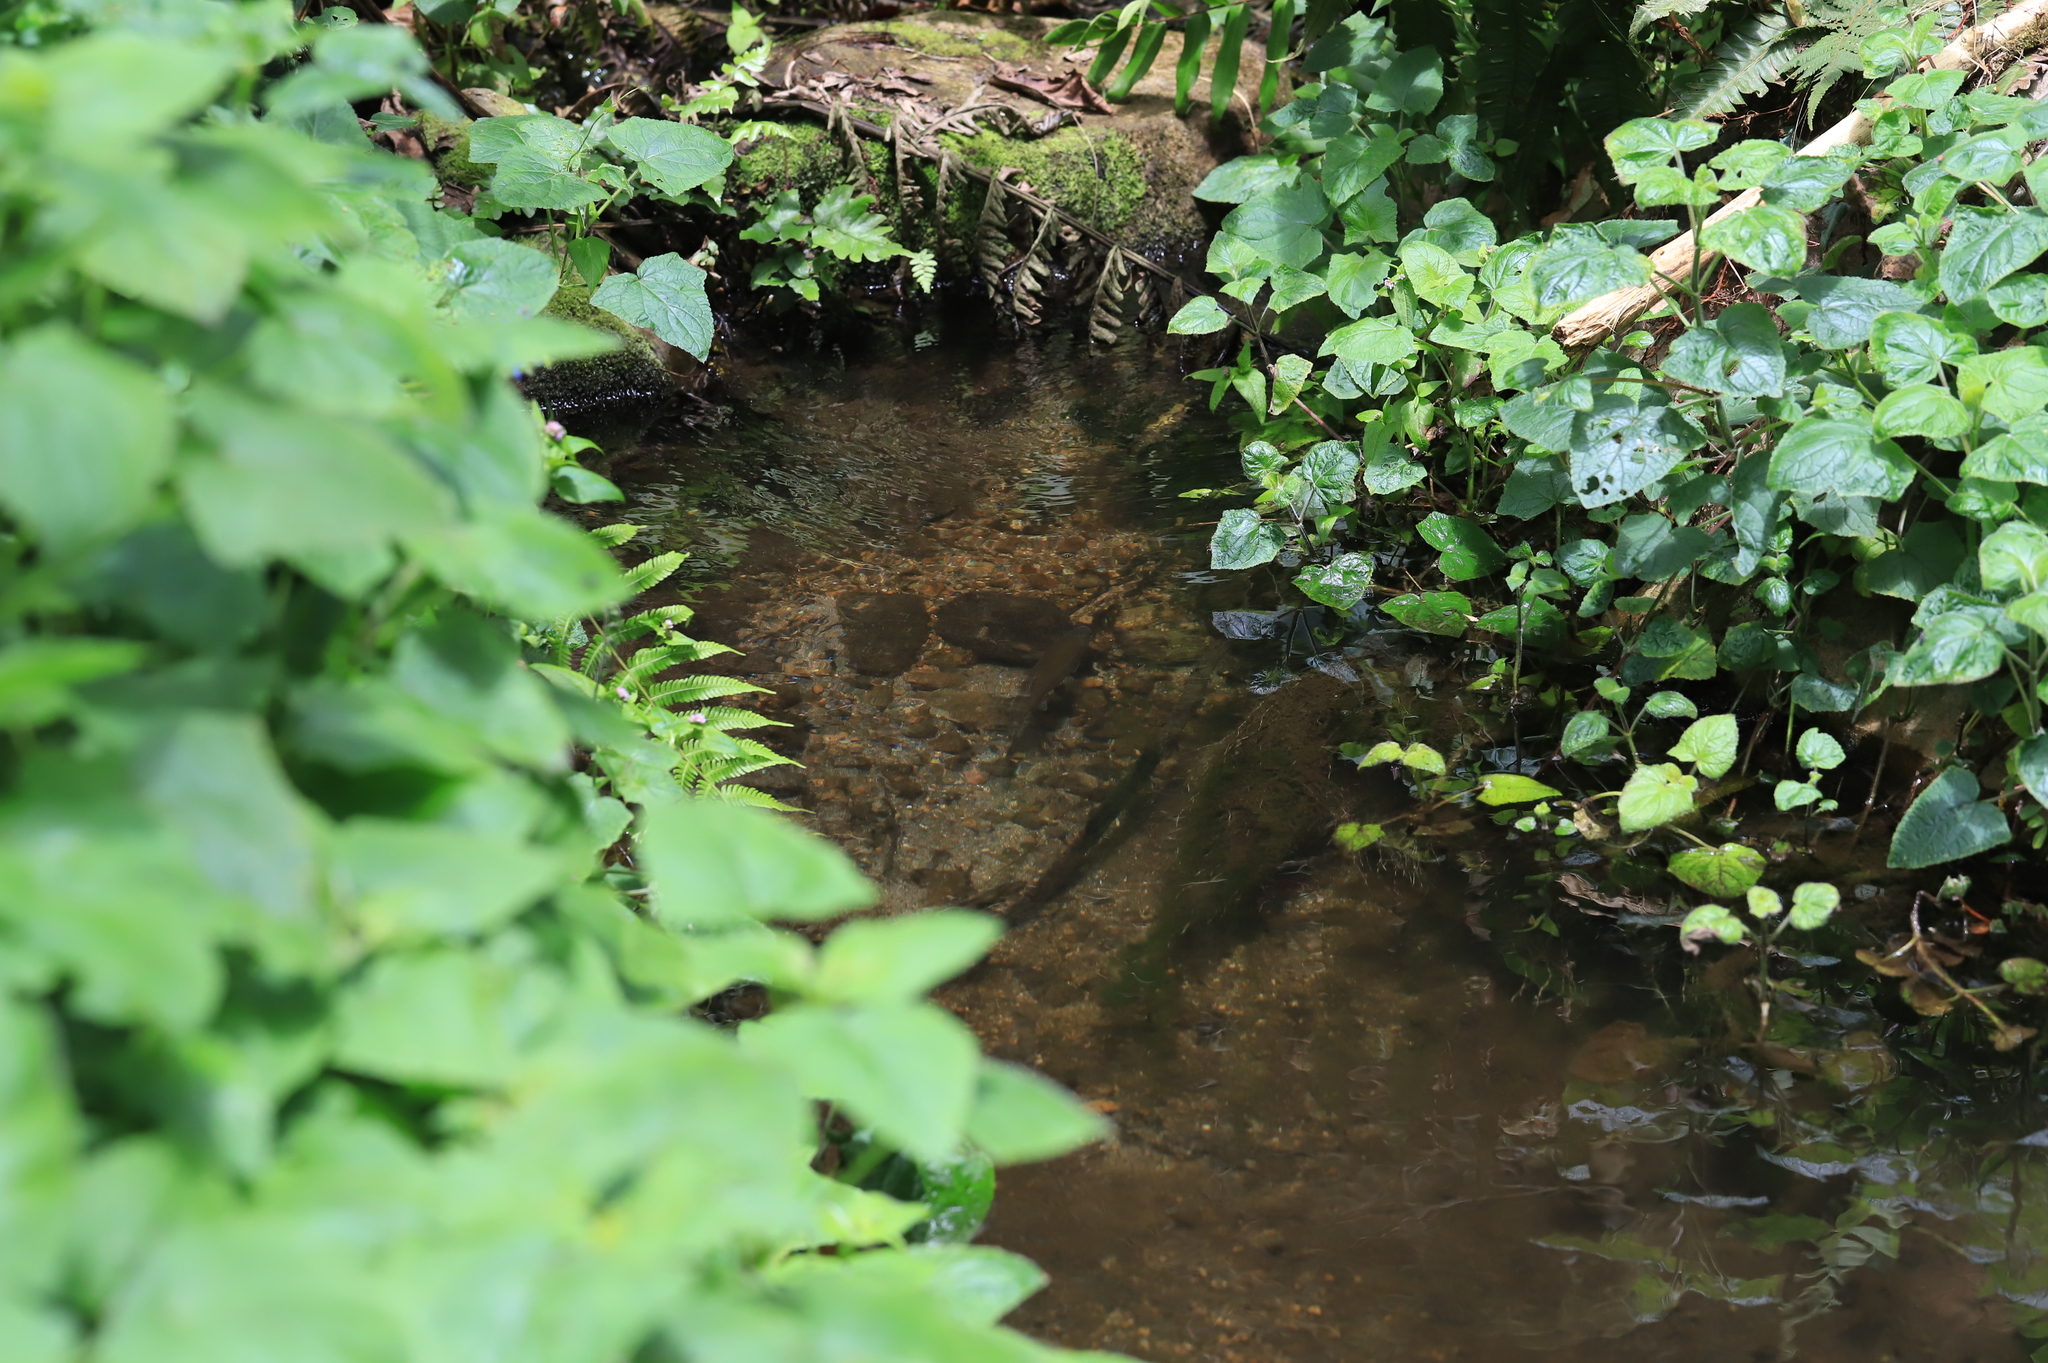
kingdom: Animalia
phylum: Chordata
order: Salmoniformes
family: Salmonidae
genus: Oncorhynchus
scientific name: Oncorhynchus mykiss
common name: Rainbow trout
